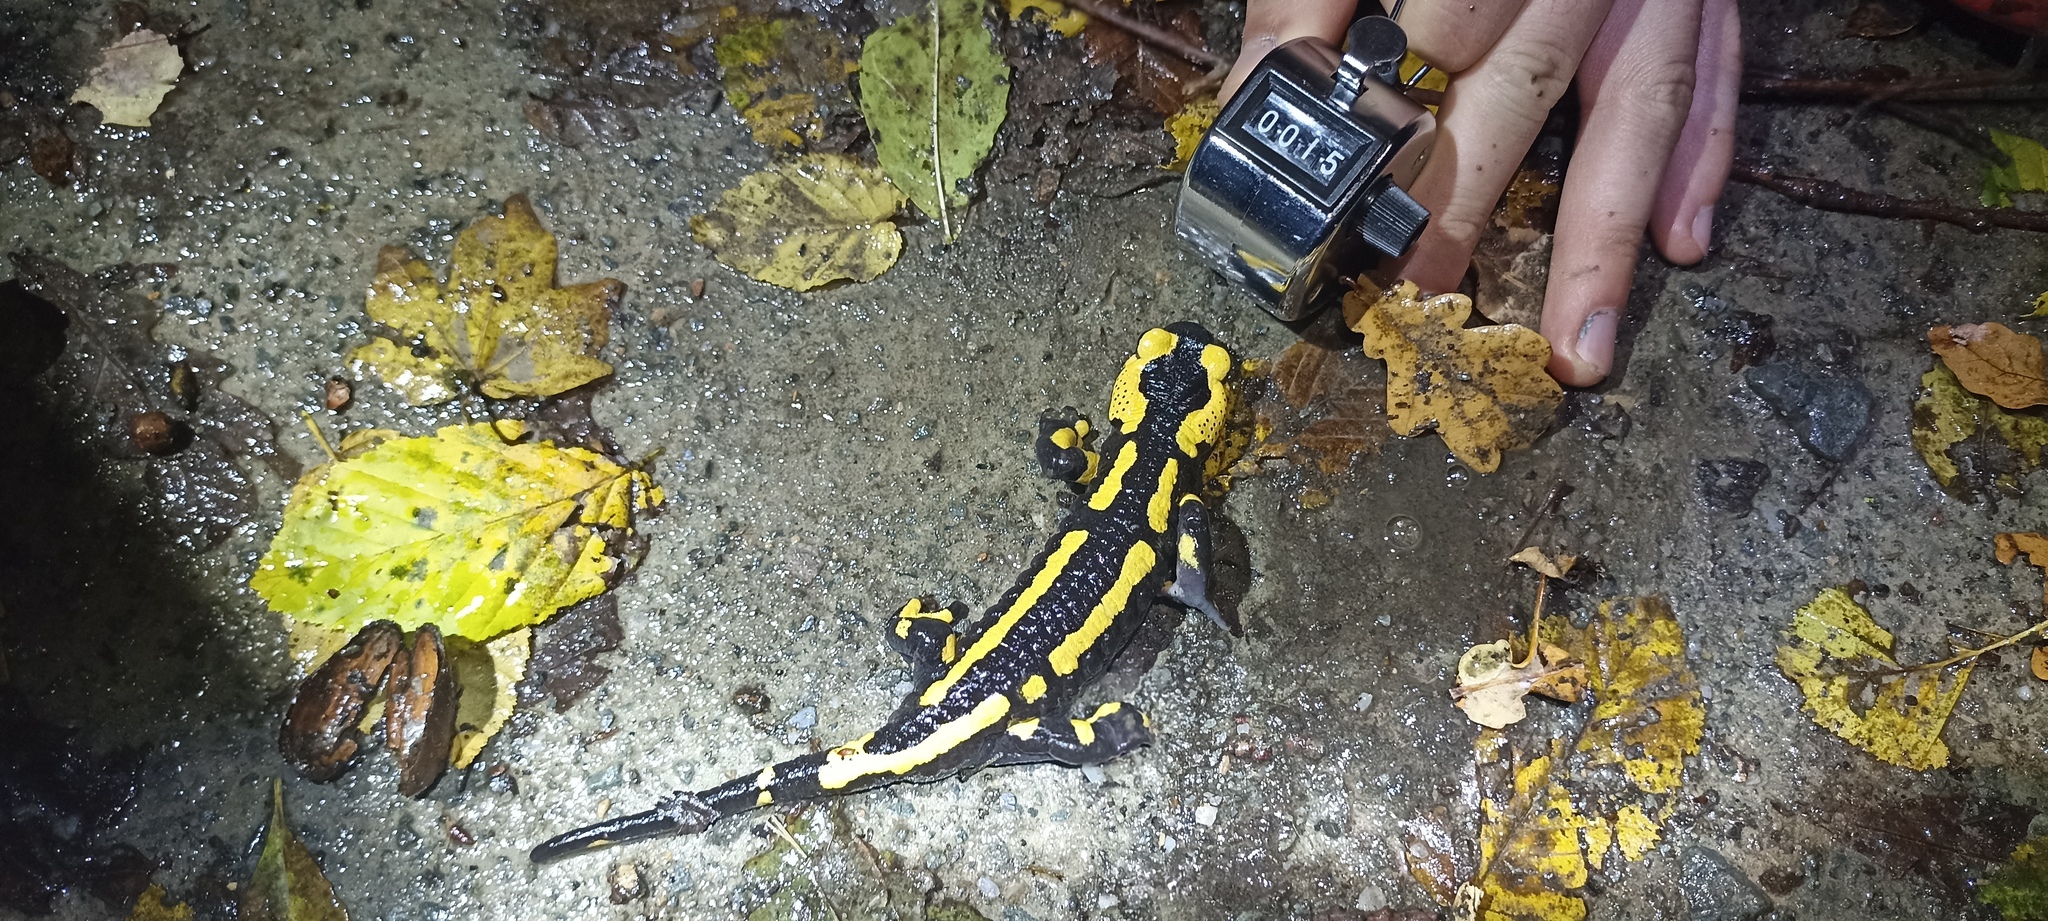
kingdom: Animalia
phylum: Chordata
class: Amphibia
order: Caudata
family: Salamandridae
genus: Salamandra
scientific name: Salamandra salamandra
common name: Fire salamander
